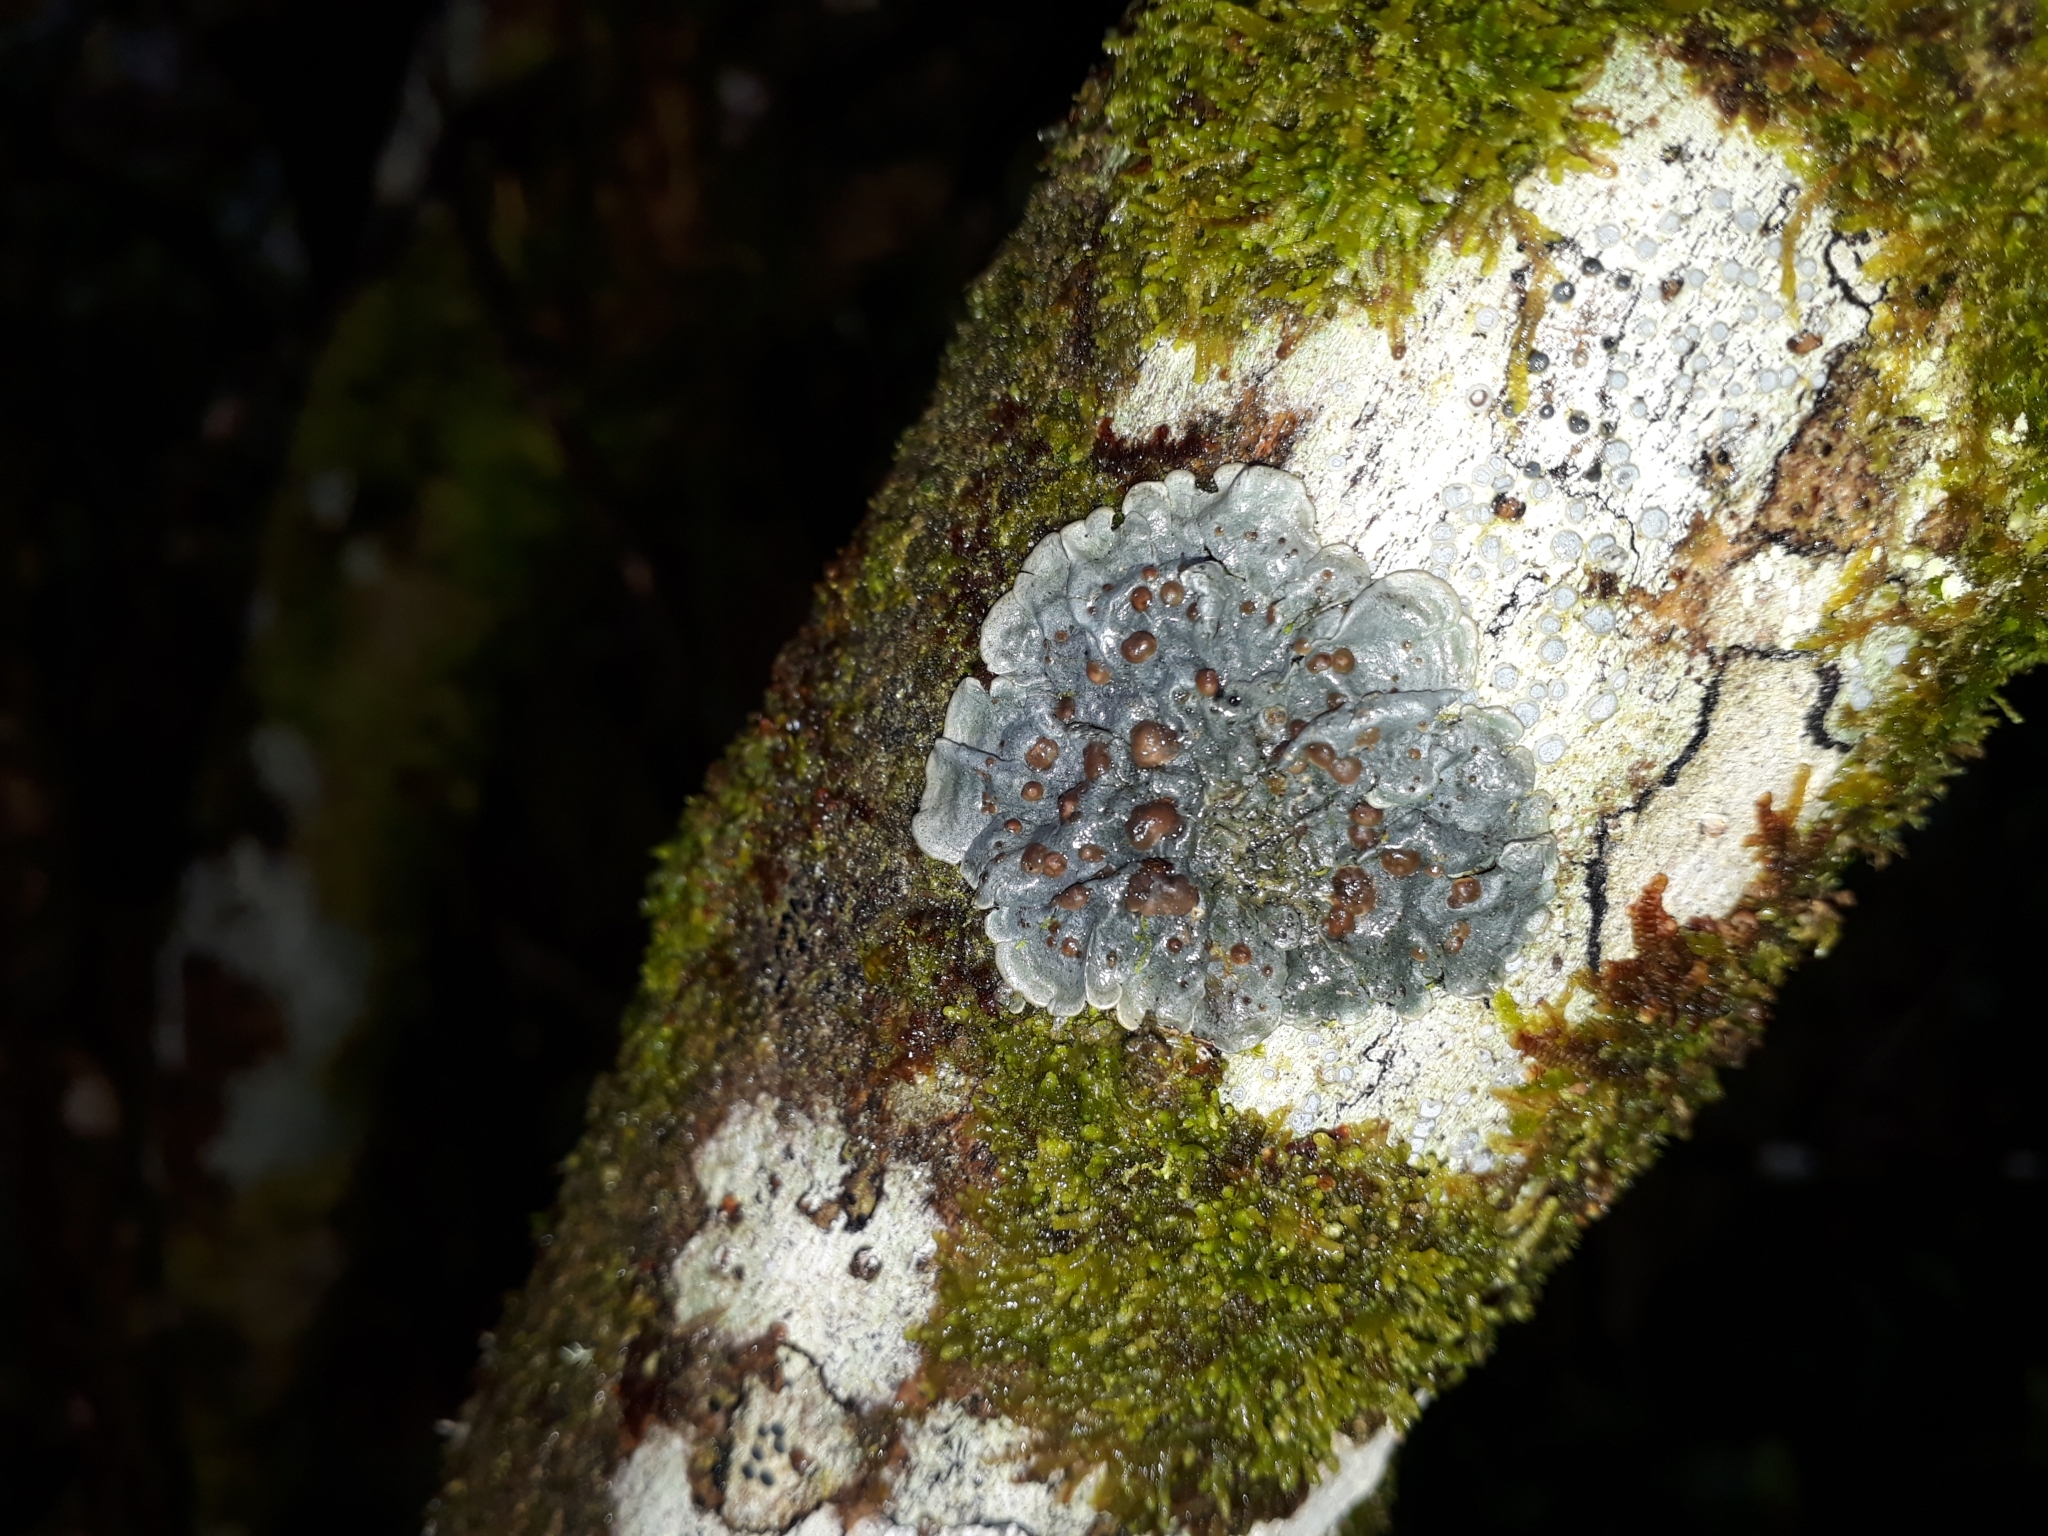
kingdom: Fungi
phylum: Ascomycota
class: Lecanoromycetes
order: Peltigerales
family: Coccocarpiaceae
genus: Coccocarpia
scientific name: Coccocarpia erythroxyli
